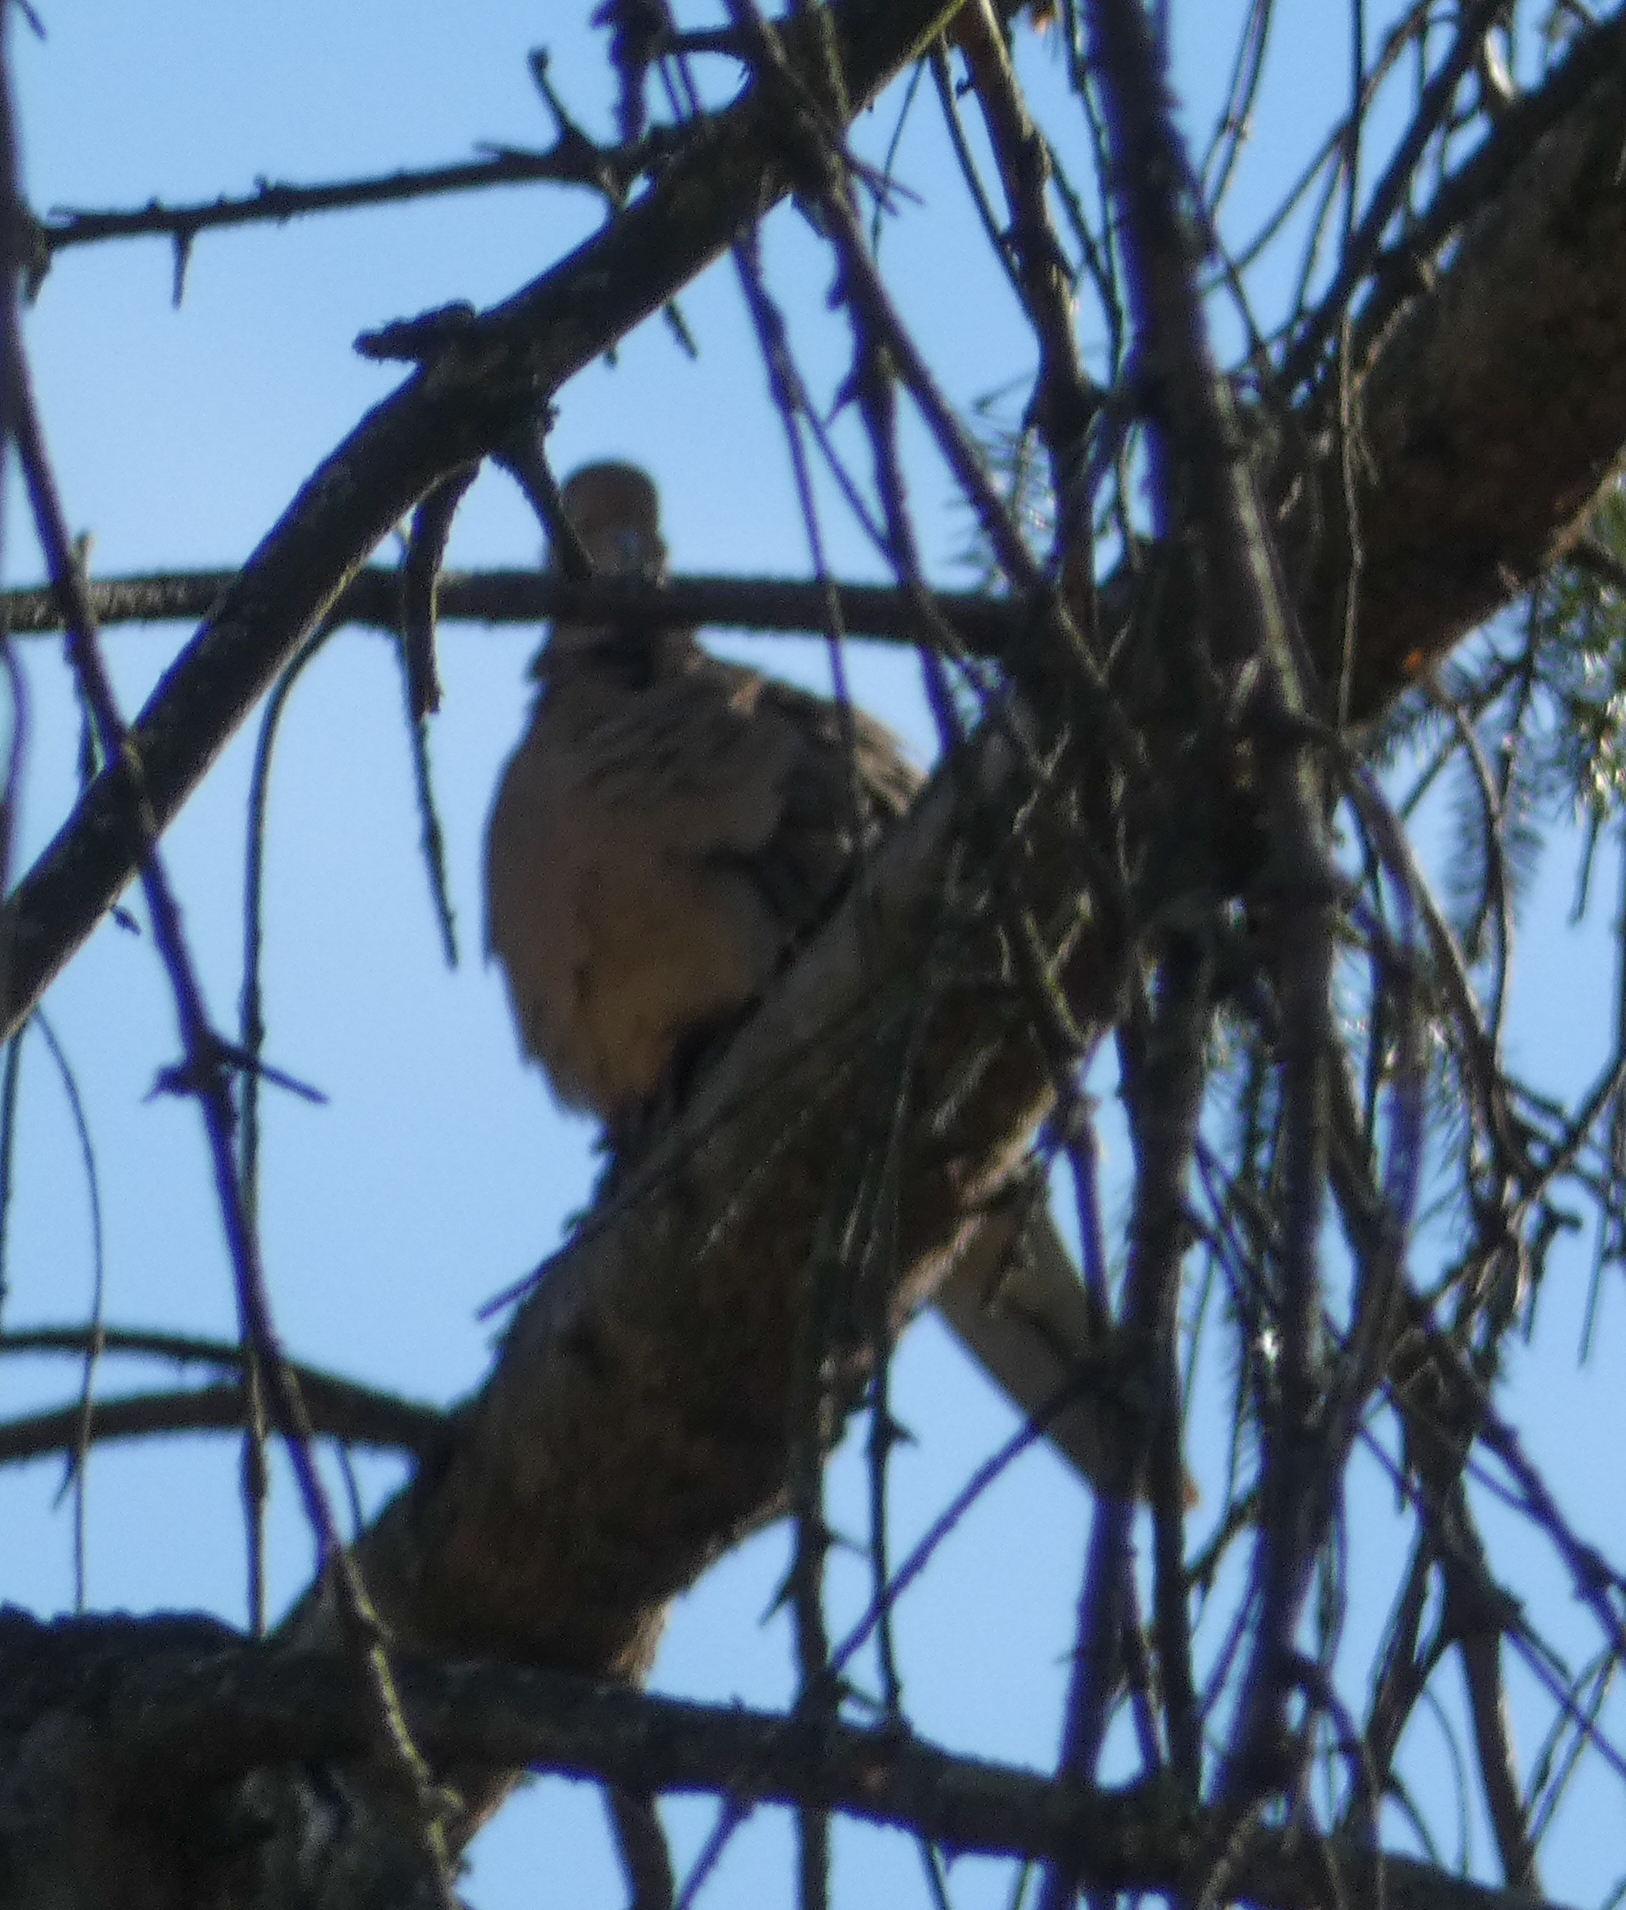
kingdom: Animalia
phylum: Chordata
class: Aves
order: Columbiformes
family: Columbidae
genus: Zenaida
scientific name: Zenaida macroura
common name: Mourning dove
